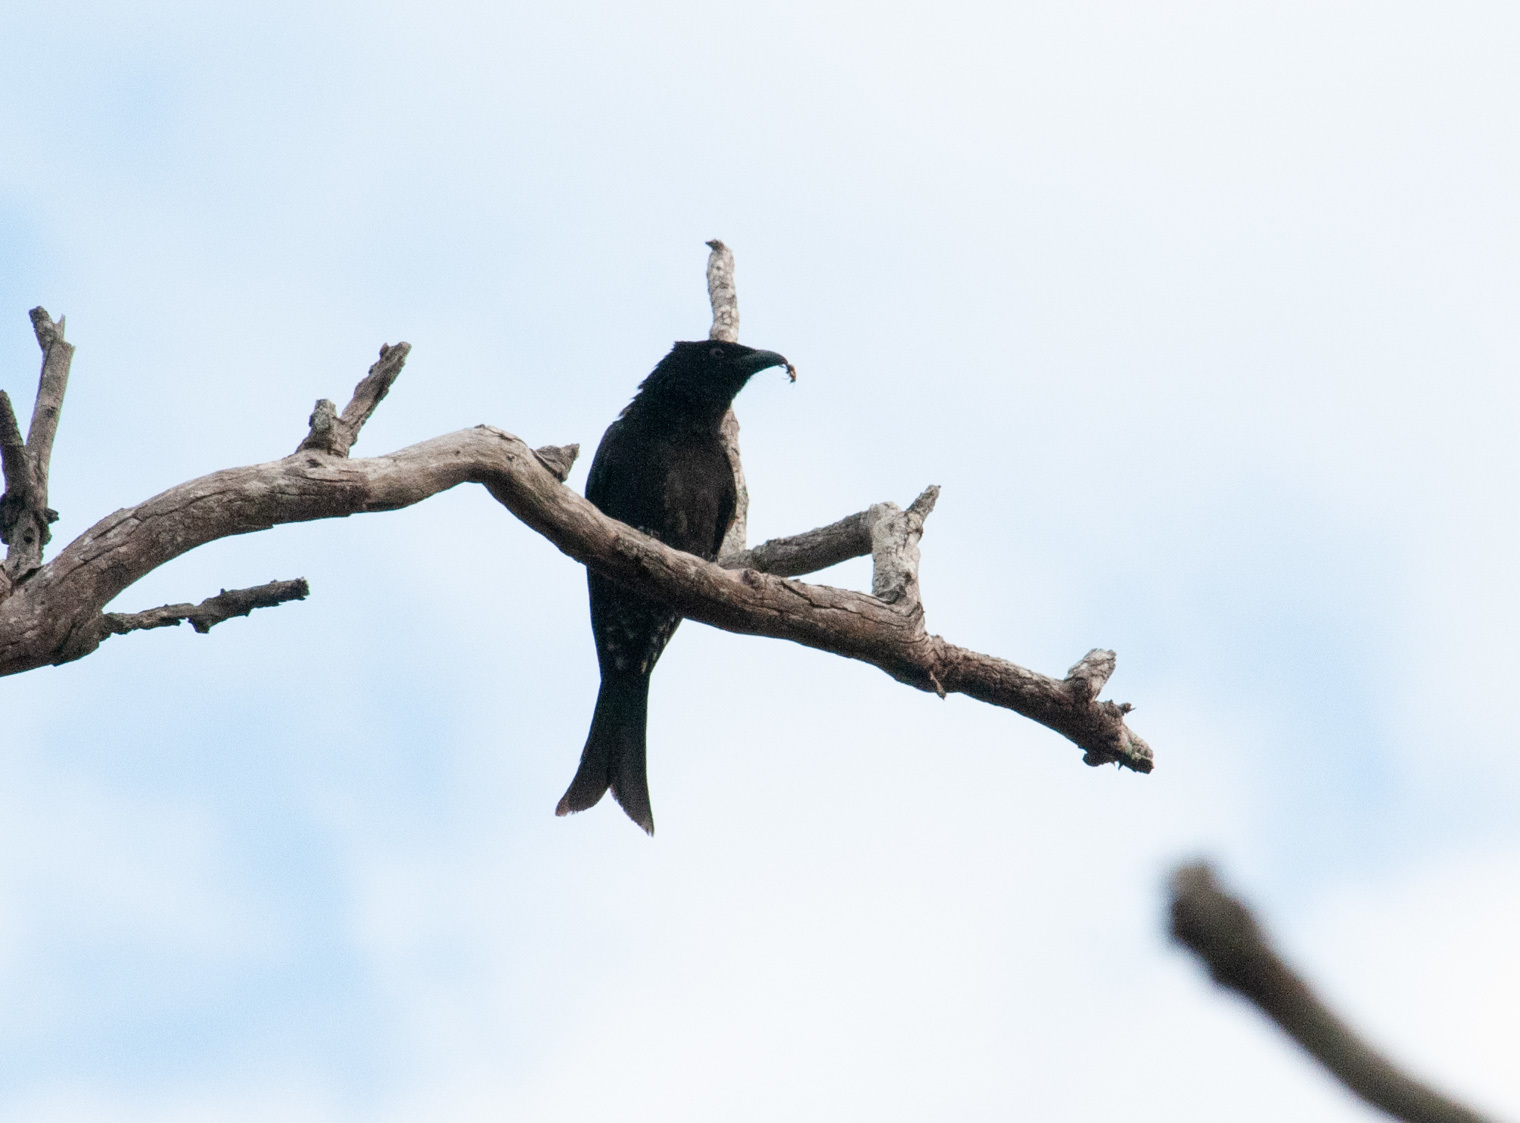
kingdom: Animalia
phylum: Chordata
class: Aves
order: Passeriformes
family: Dicruridae
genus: Dicrurus
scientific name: Dicrurus bracteatus
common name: Spangled drongo
